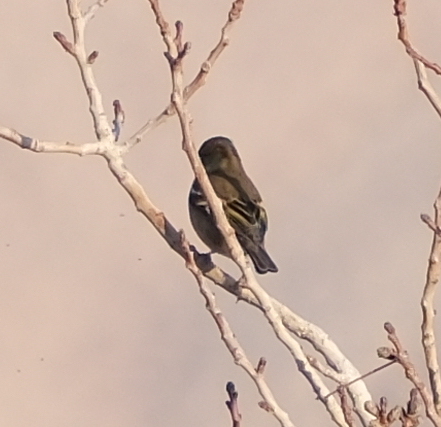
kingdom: Animalia
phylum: Chordata
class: Aves
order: Passeriformes
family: Fringillidae
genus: Fringilla
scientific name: Fringilla coelebs
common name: Common chaffinch
